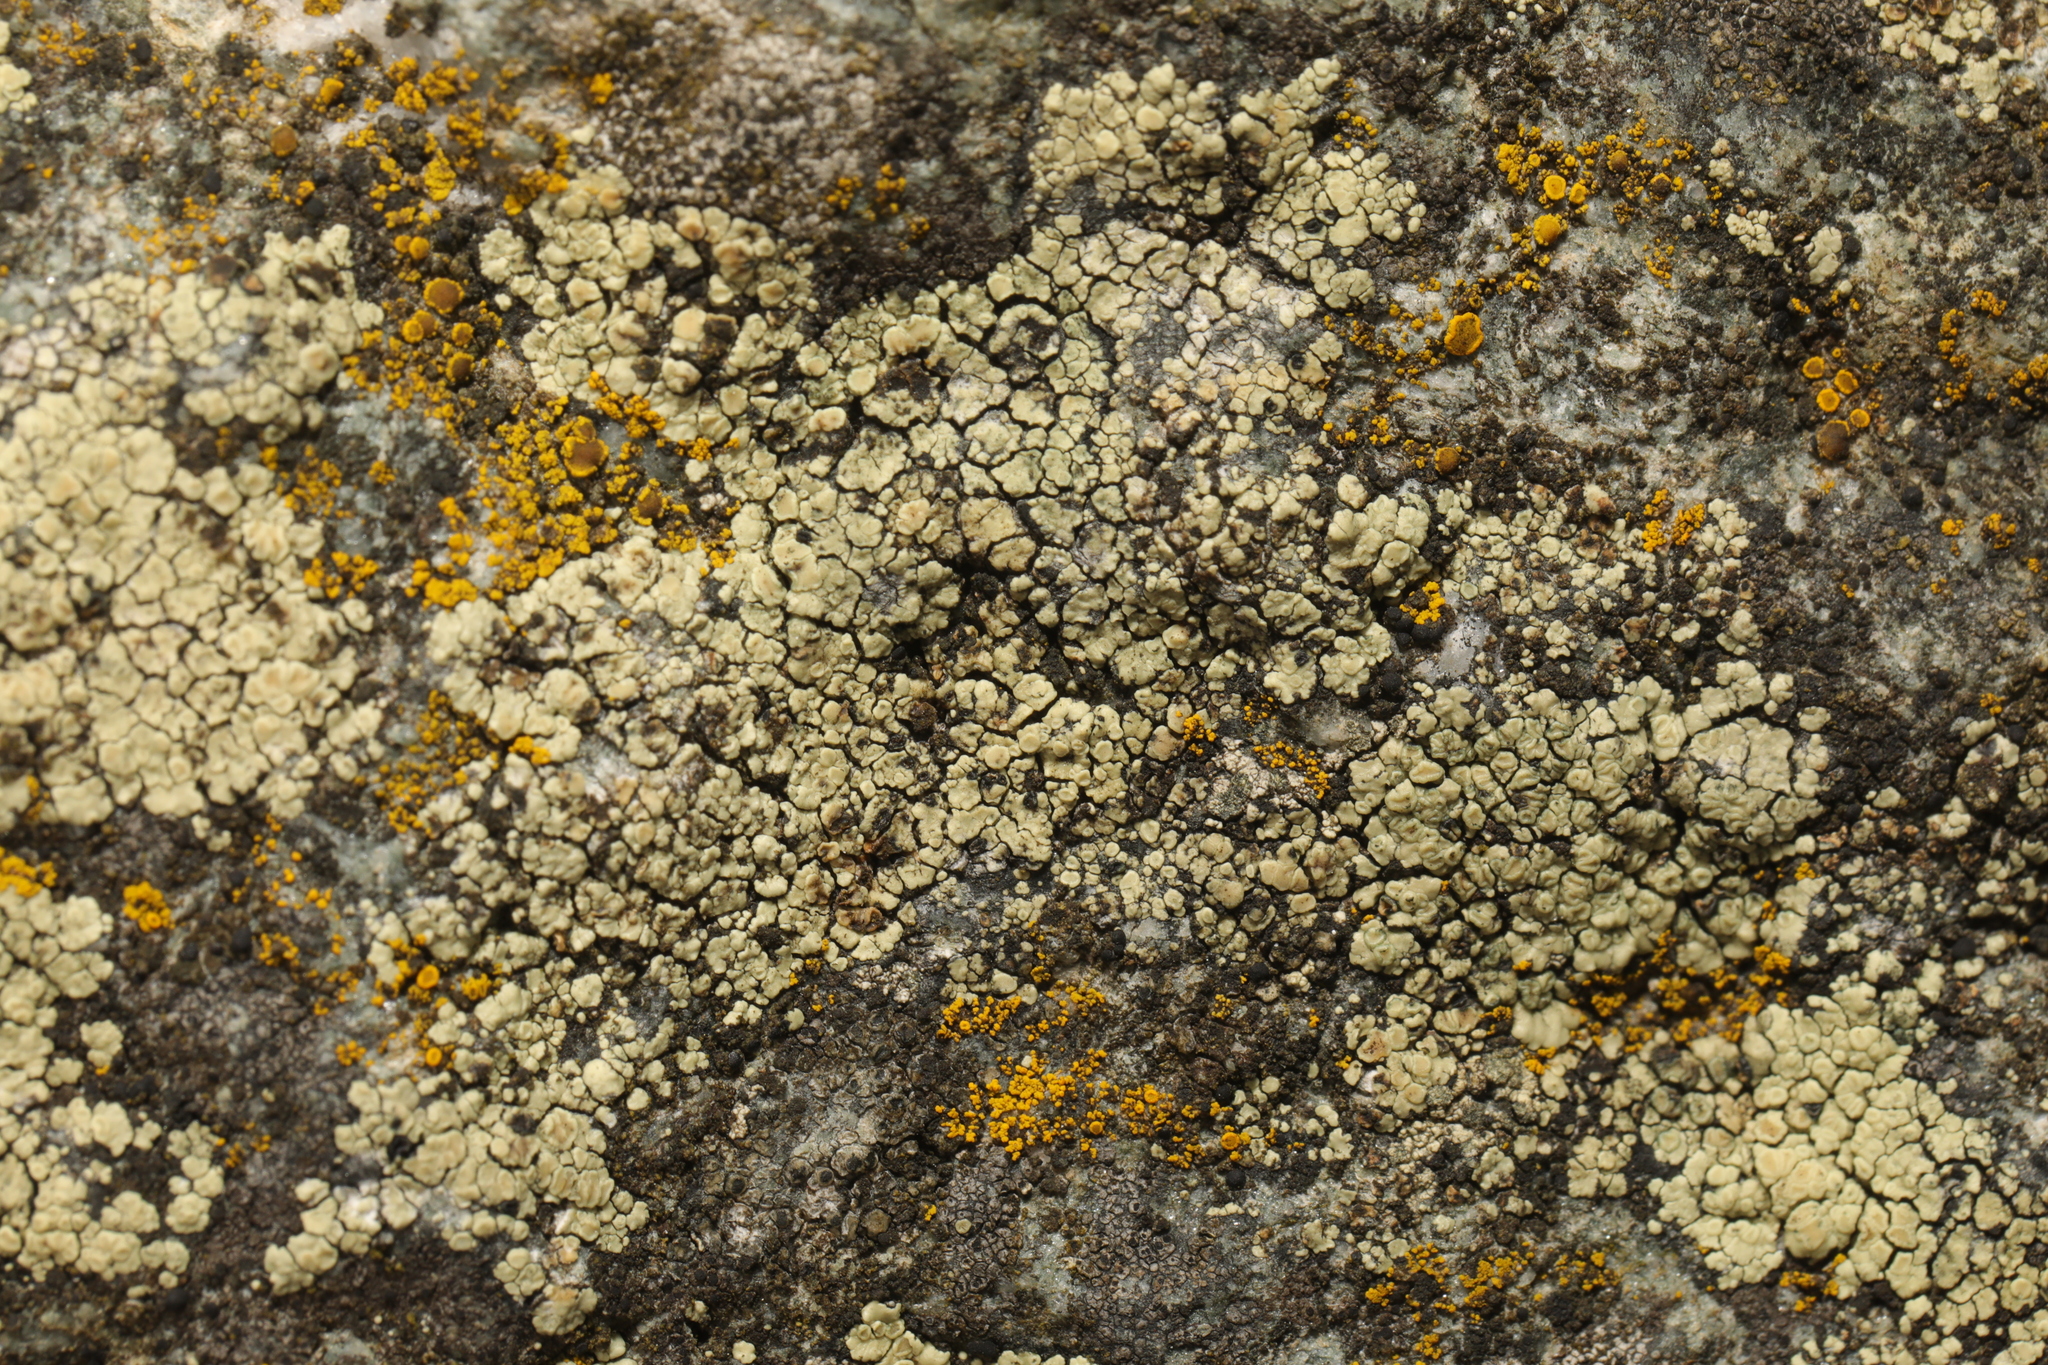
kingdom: Fungi
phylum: Ascomycota
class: Lecanoromycetes
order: Lecanorales
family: Lecanoraceae
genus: Lecanora
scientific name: Lecanora polytropa
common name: Granite-speck rim lichen
